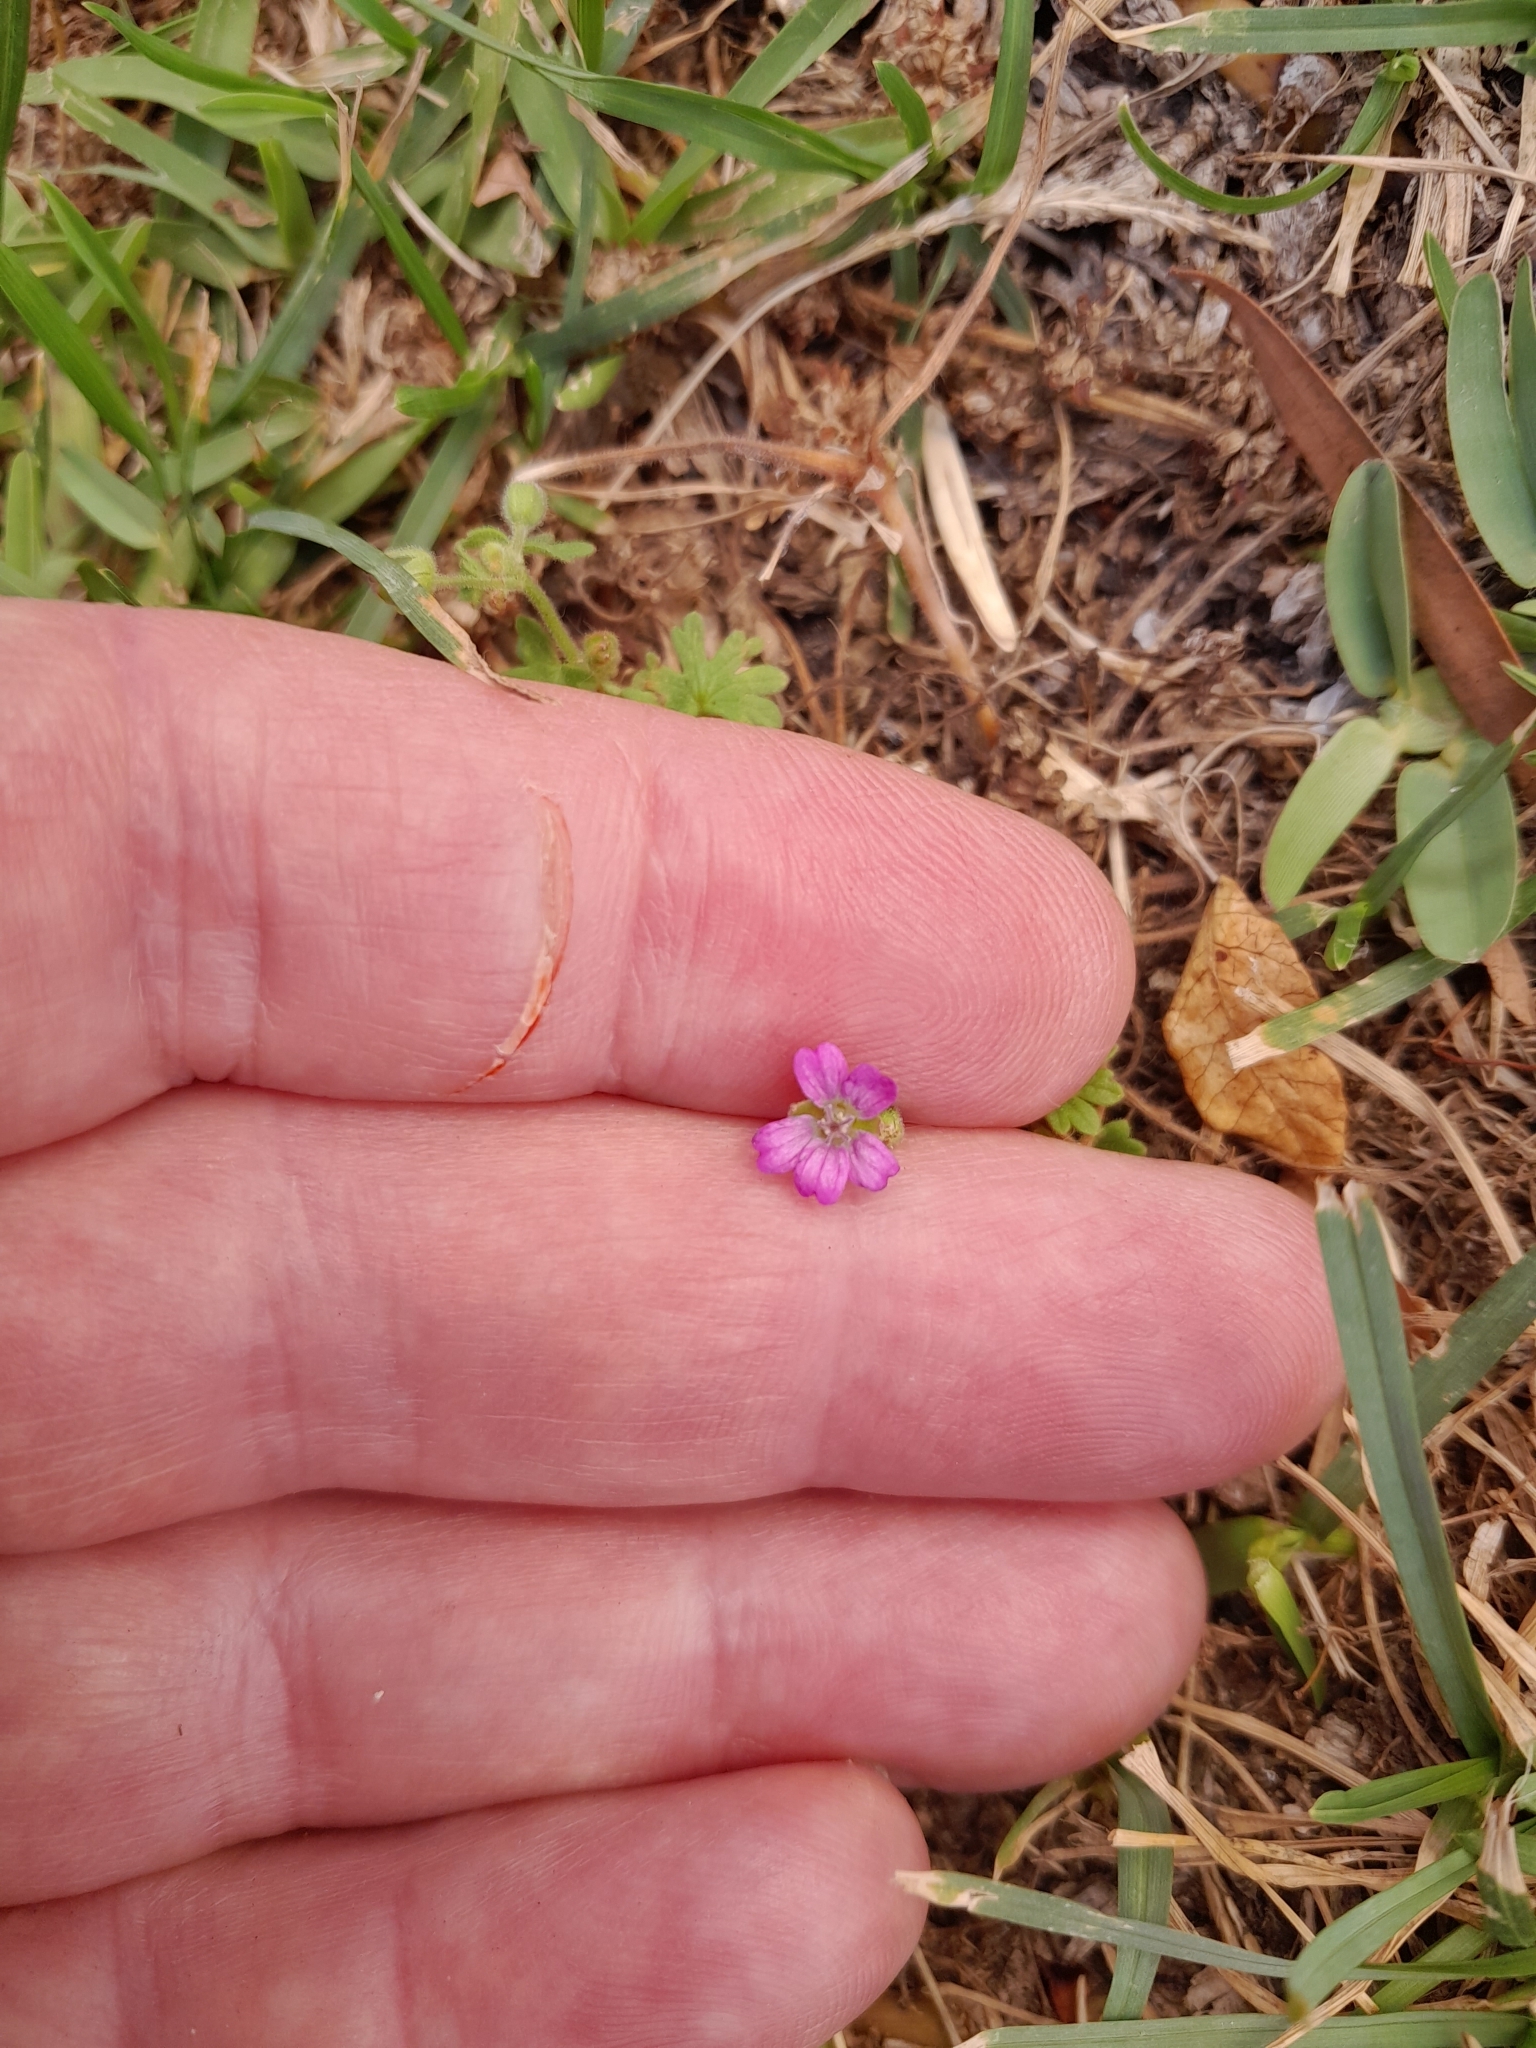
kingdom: Plantae
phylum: Tracheophyta
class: Magnoliopsida
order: Geraniales
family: Geraniaceae
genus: Geranium
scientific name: Geranium molle
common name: Dove's-foot crane's-bill
